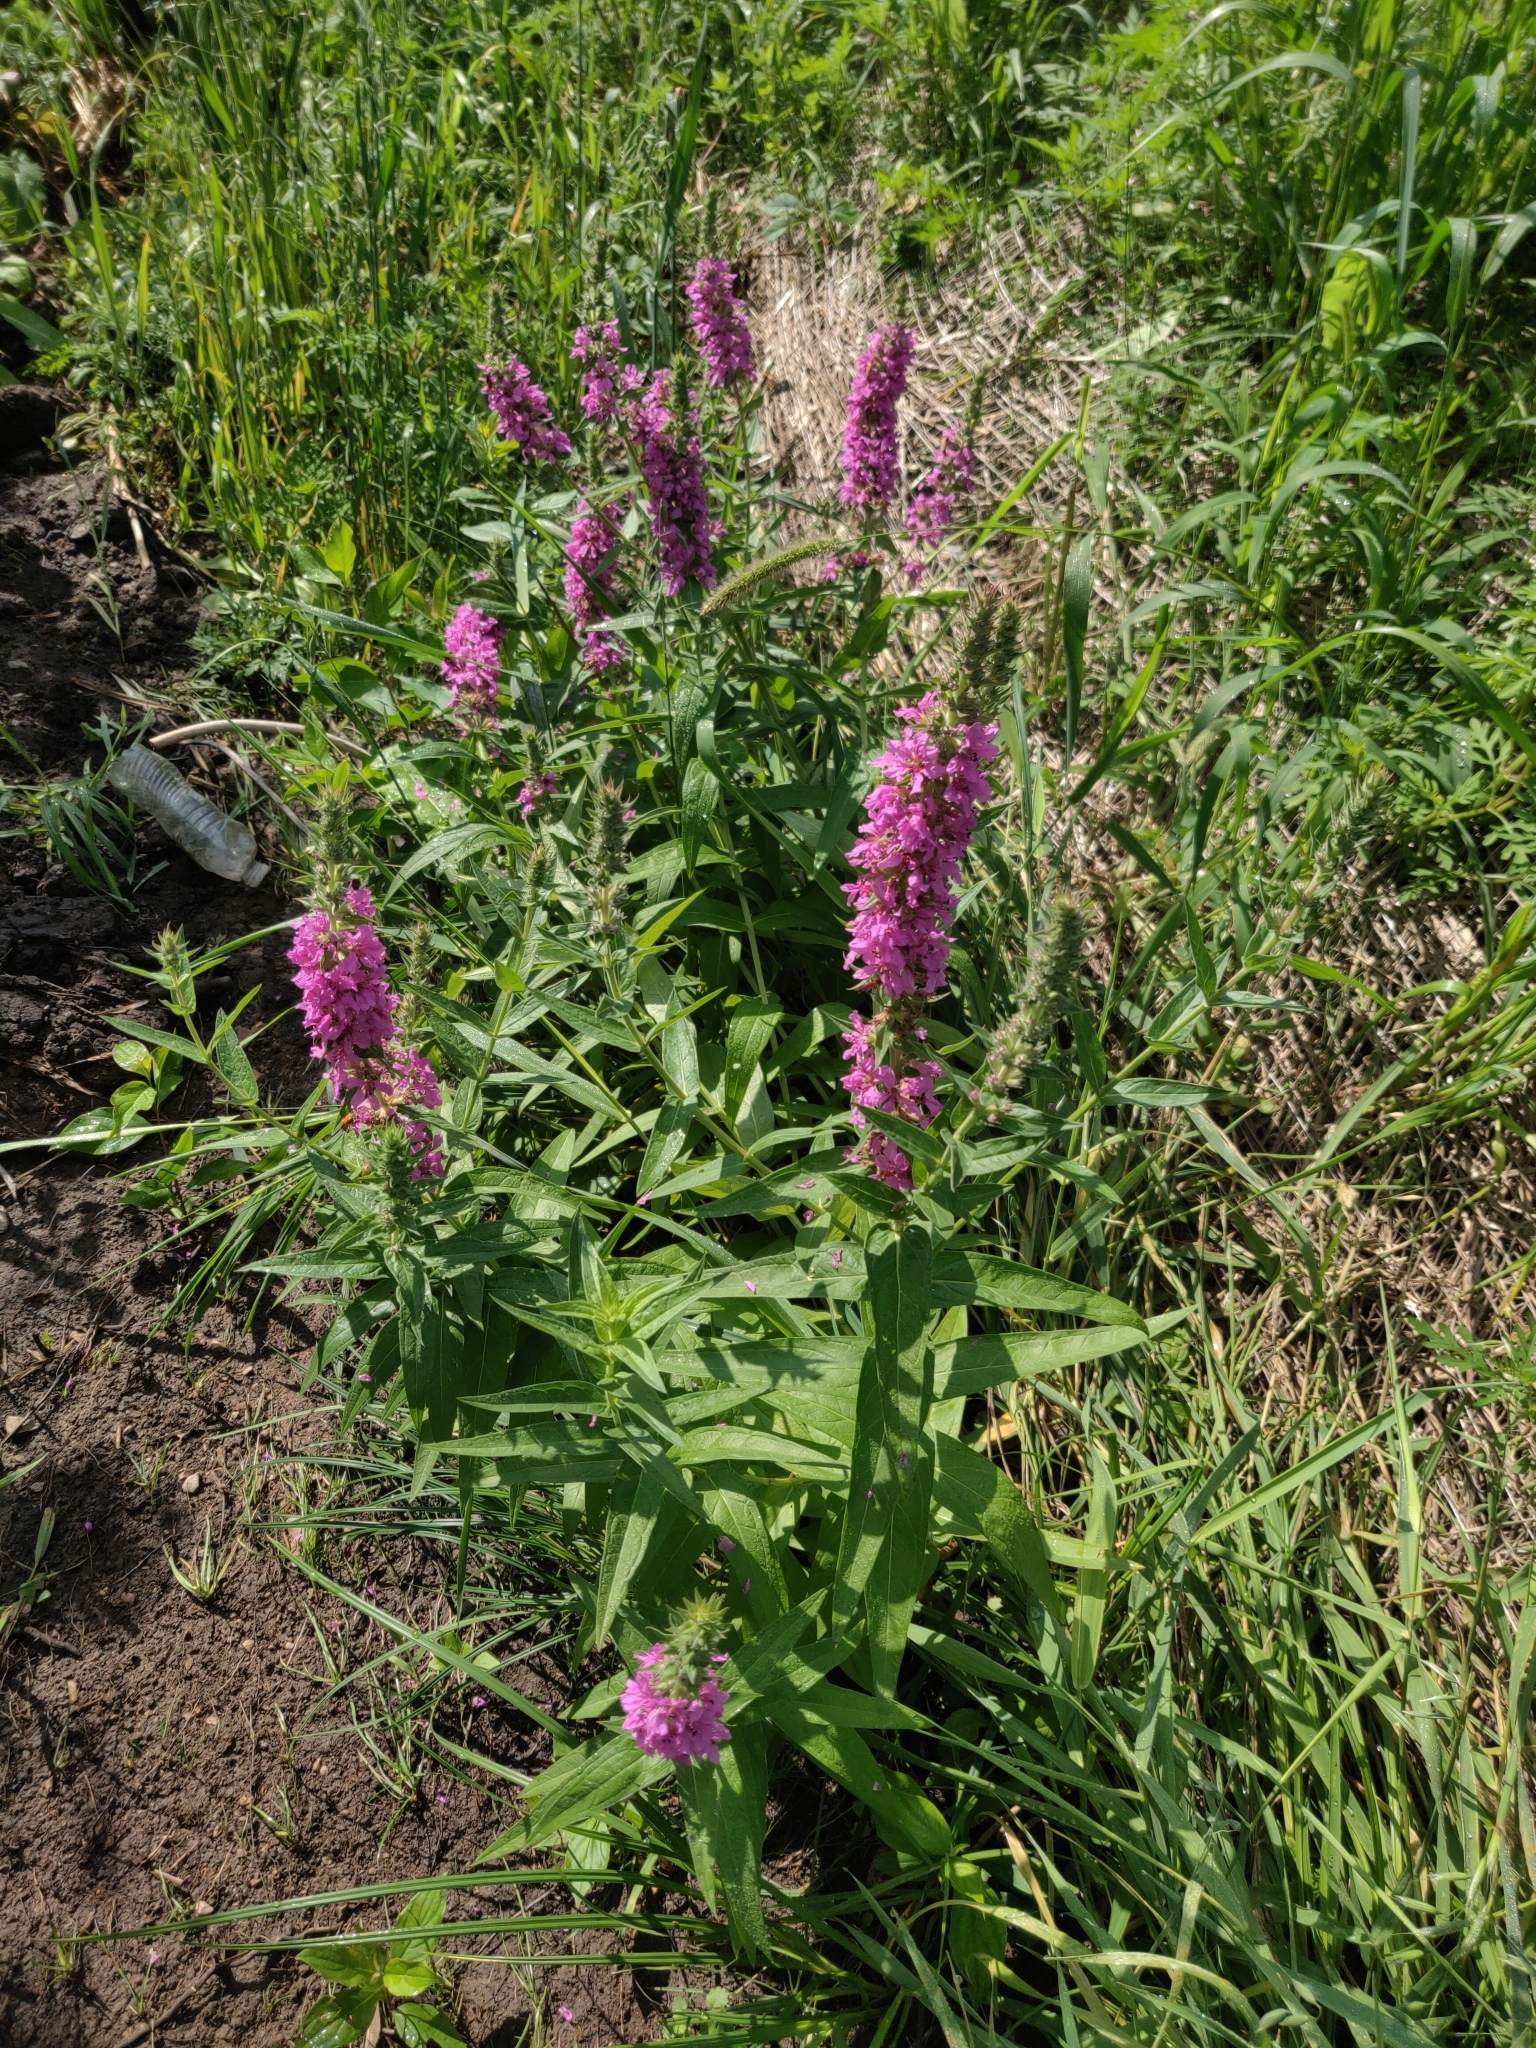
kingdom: Plantae
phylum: Tracheophyta
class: Magnoliopsida
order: Myrtales
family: Lythraceae
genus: Lythrum
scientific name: Lythrum salicaria
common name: Purple loosestrife
